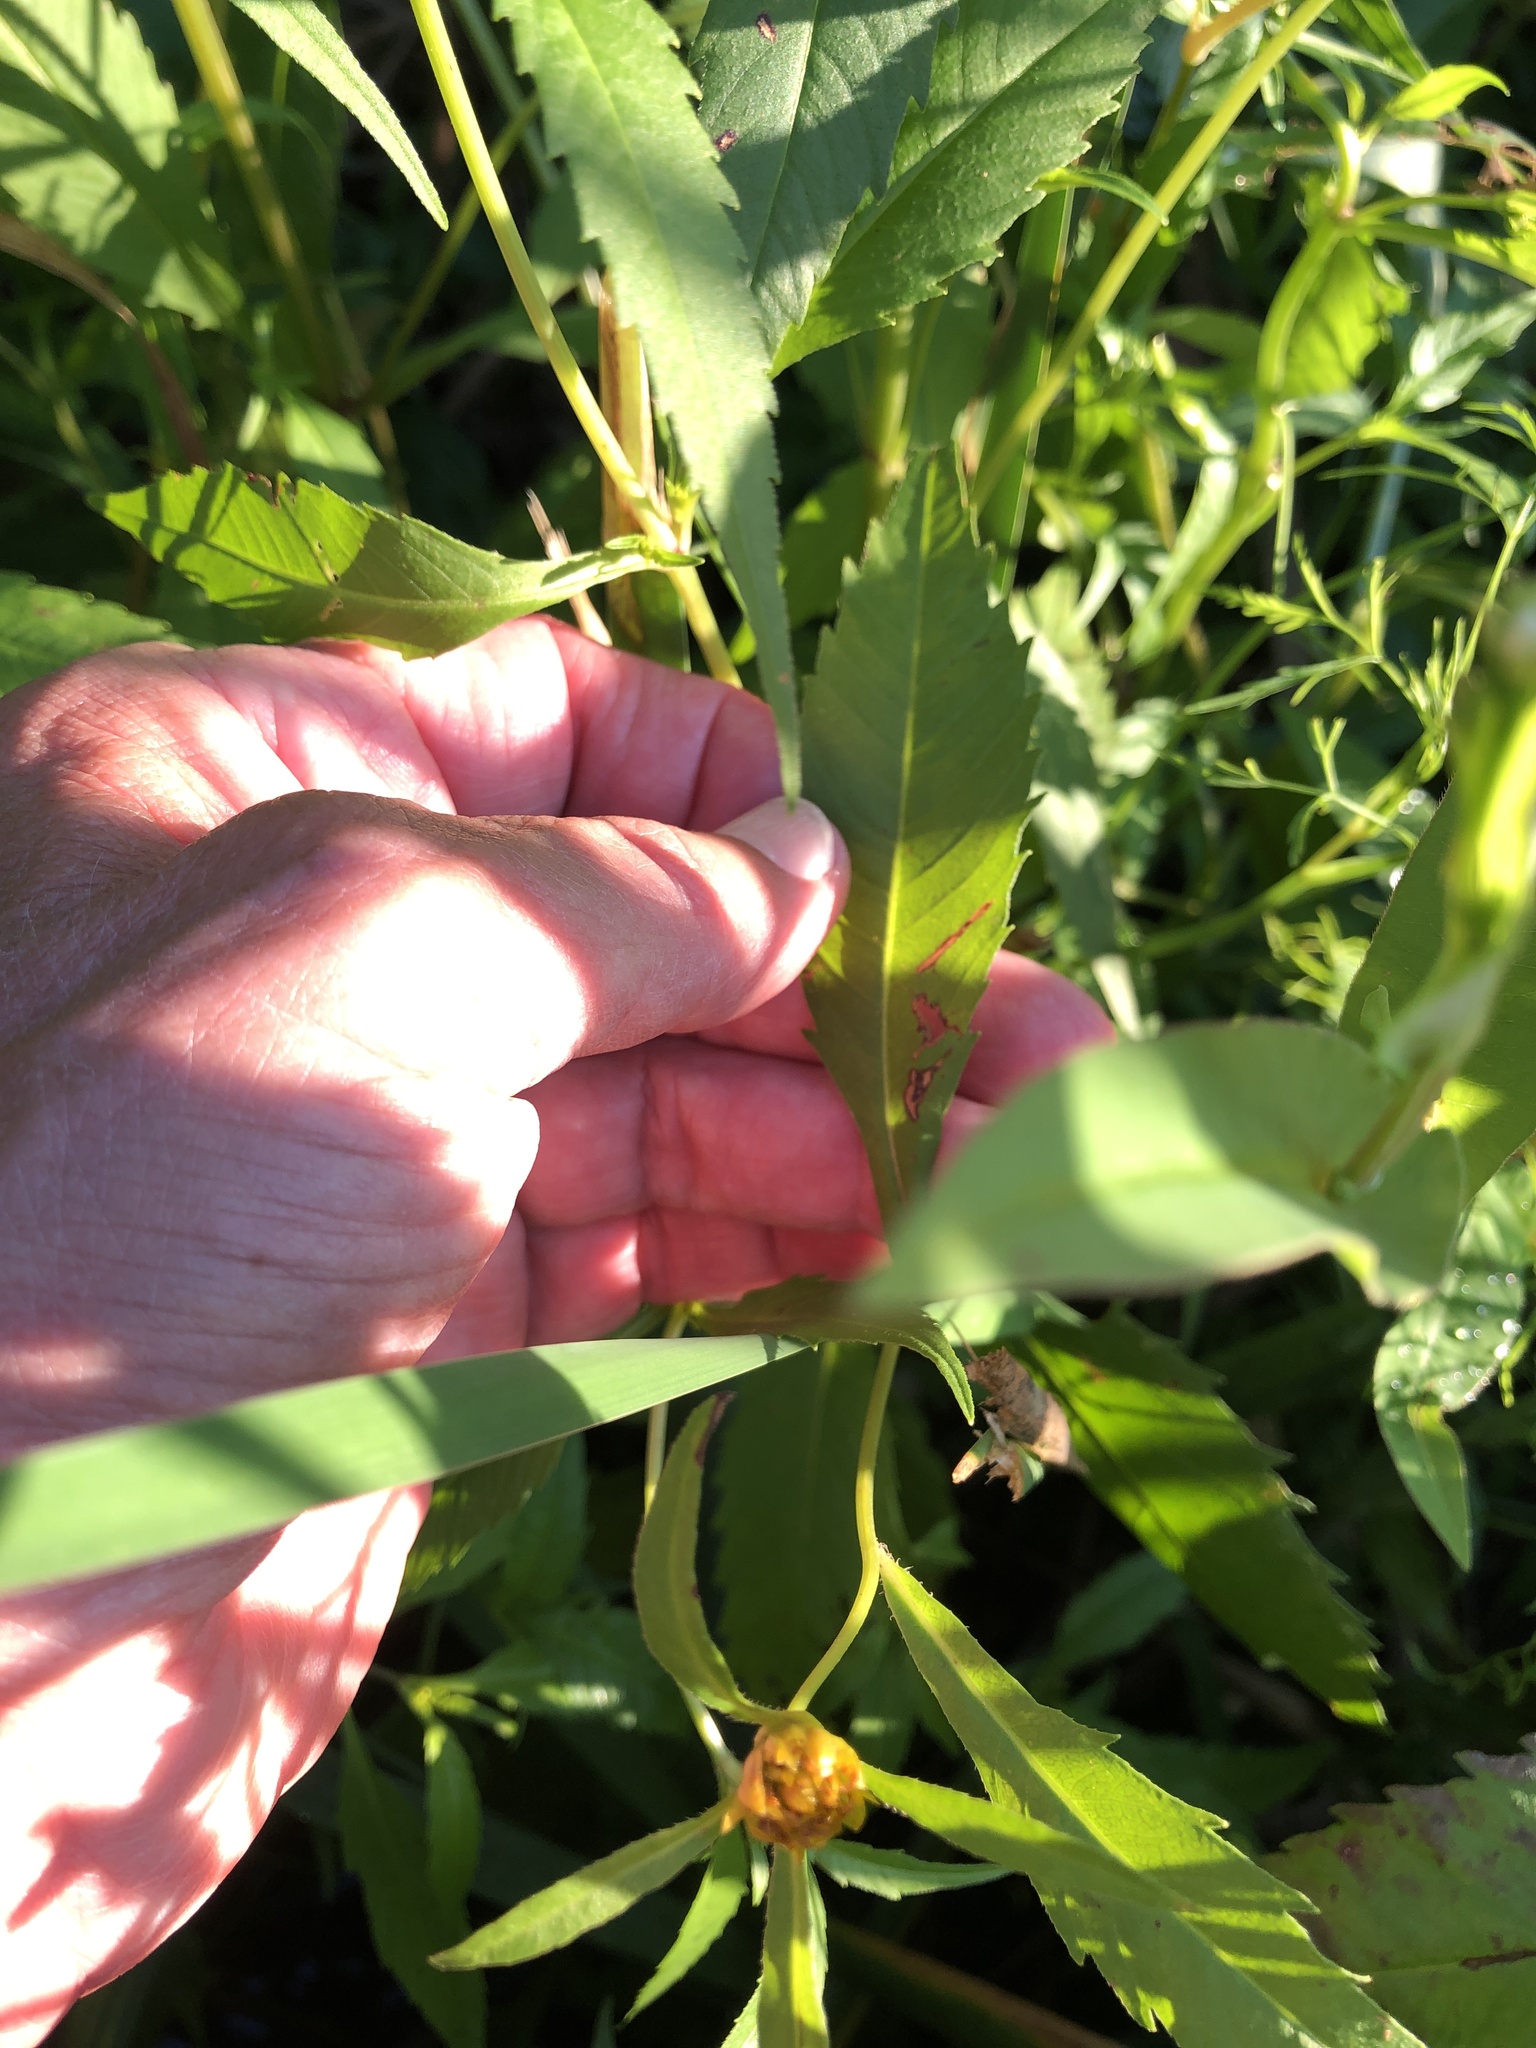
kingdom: Plantae
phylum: Tracheophyta
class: Magnoliopsida
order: Asterales
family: Asteraceae
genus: Bidens
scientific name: Bidens connata
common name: London bur-marigold
